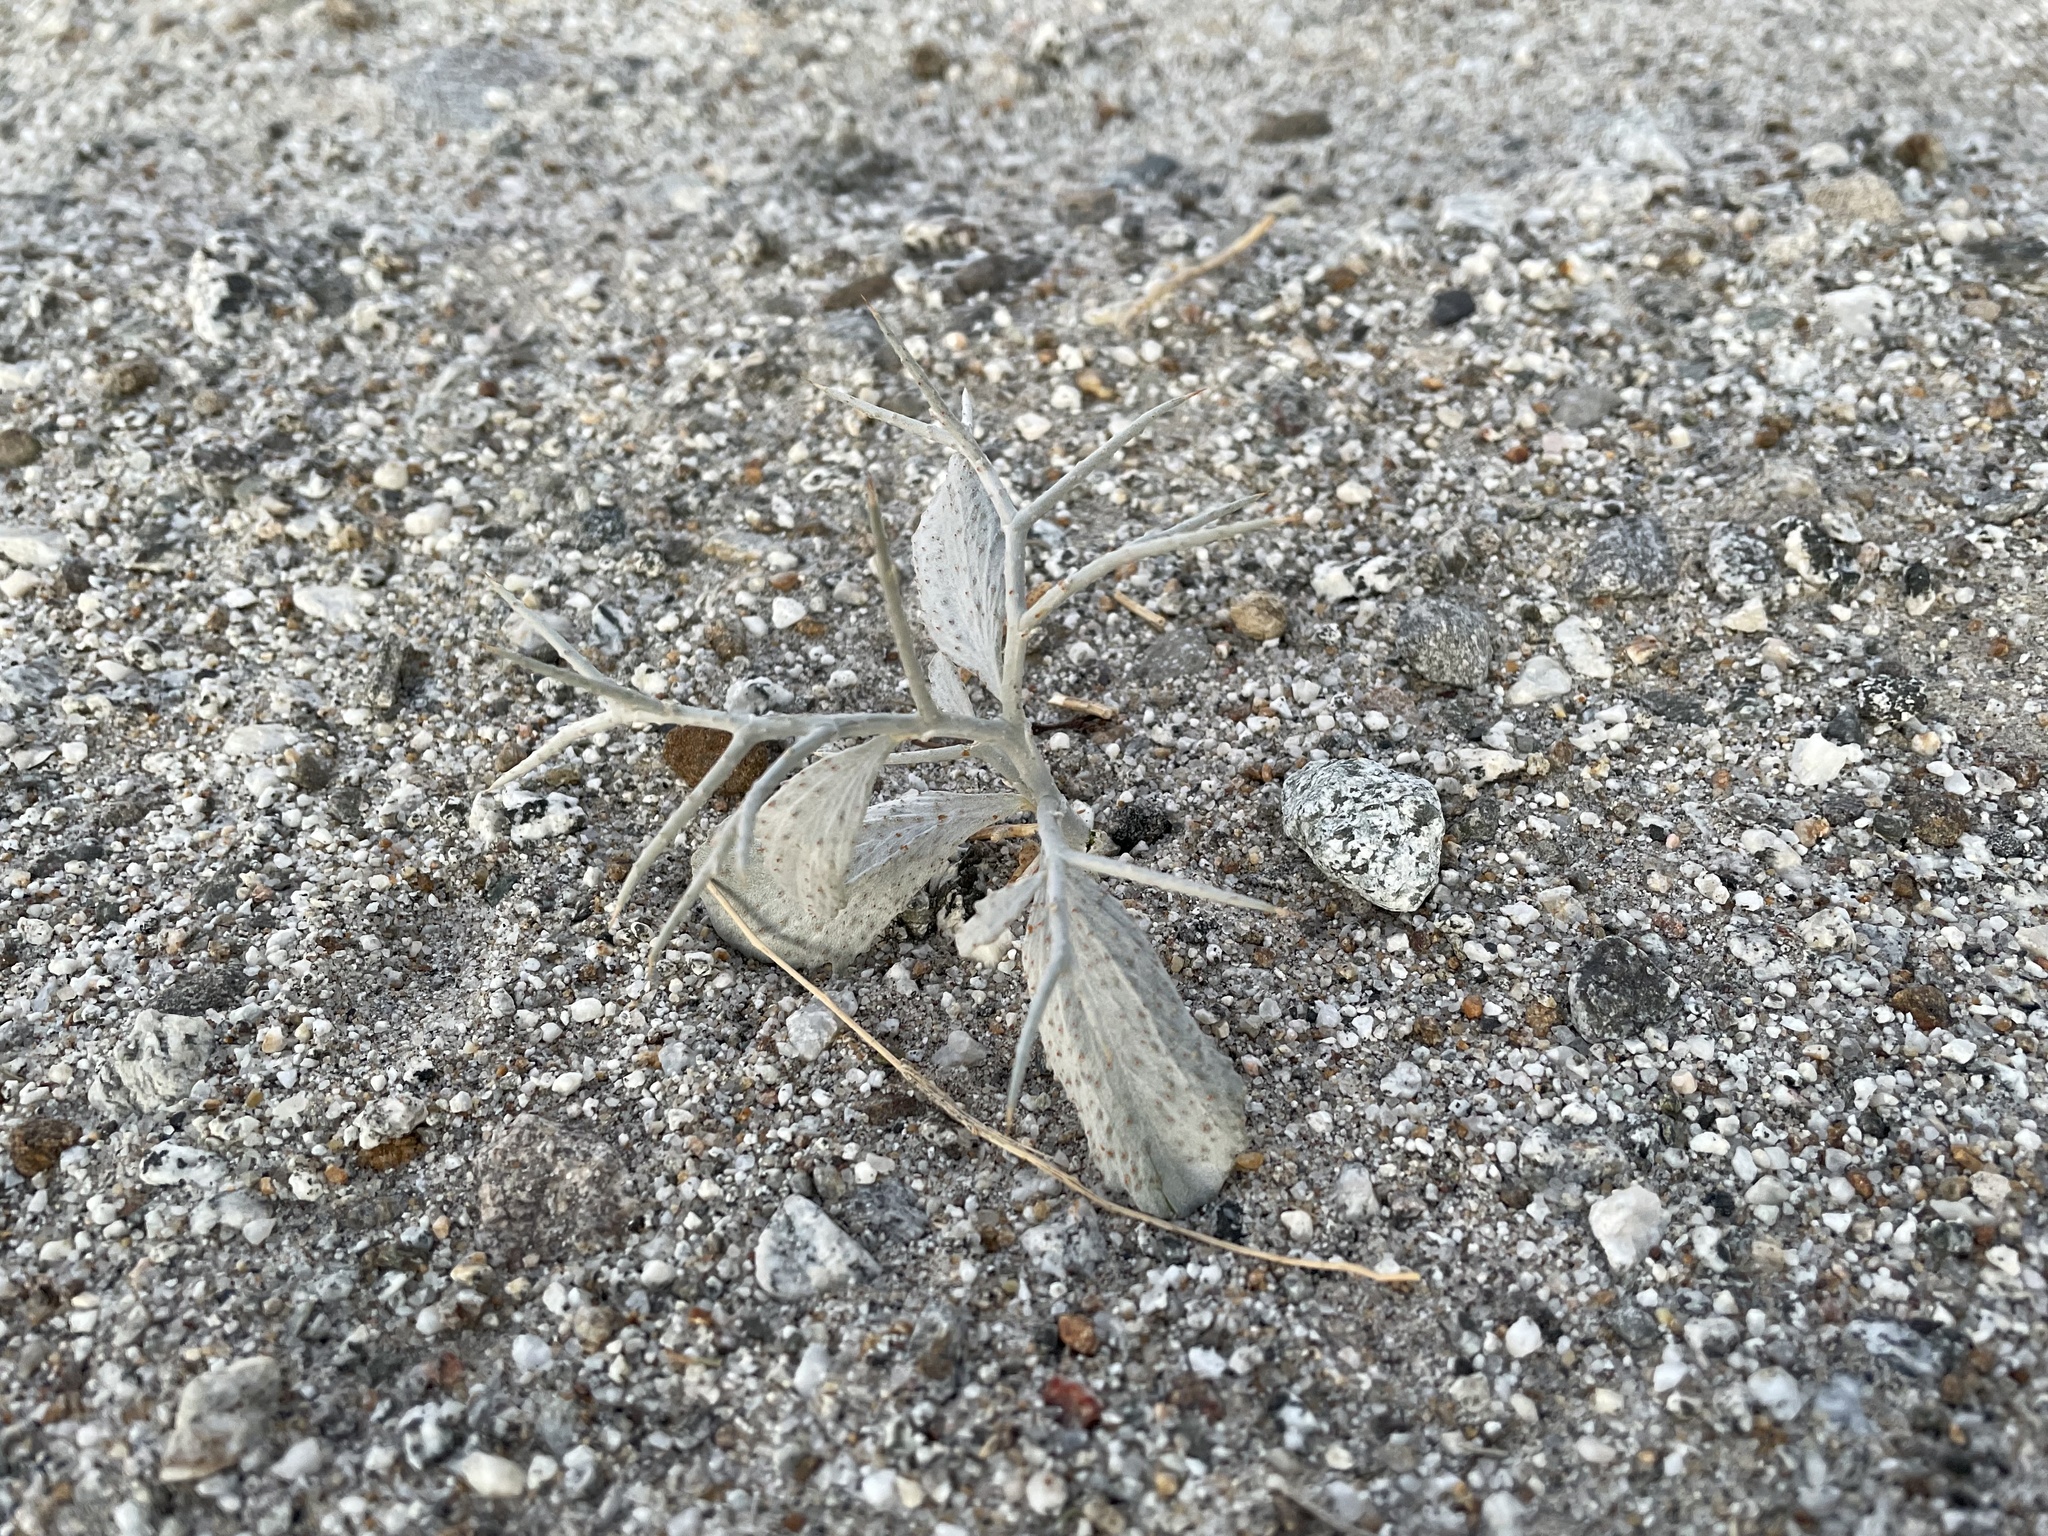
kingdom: Plantae
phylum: Tracheophyta
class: Magnoliopsida
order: Fabales
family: Fabaceae
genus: Psorothamnus
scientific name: Psorothamnus spinosus
